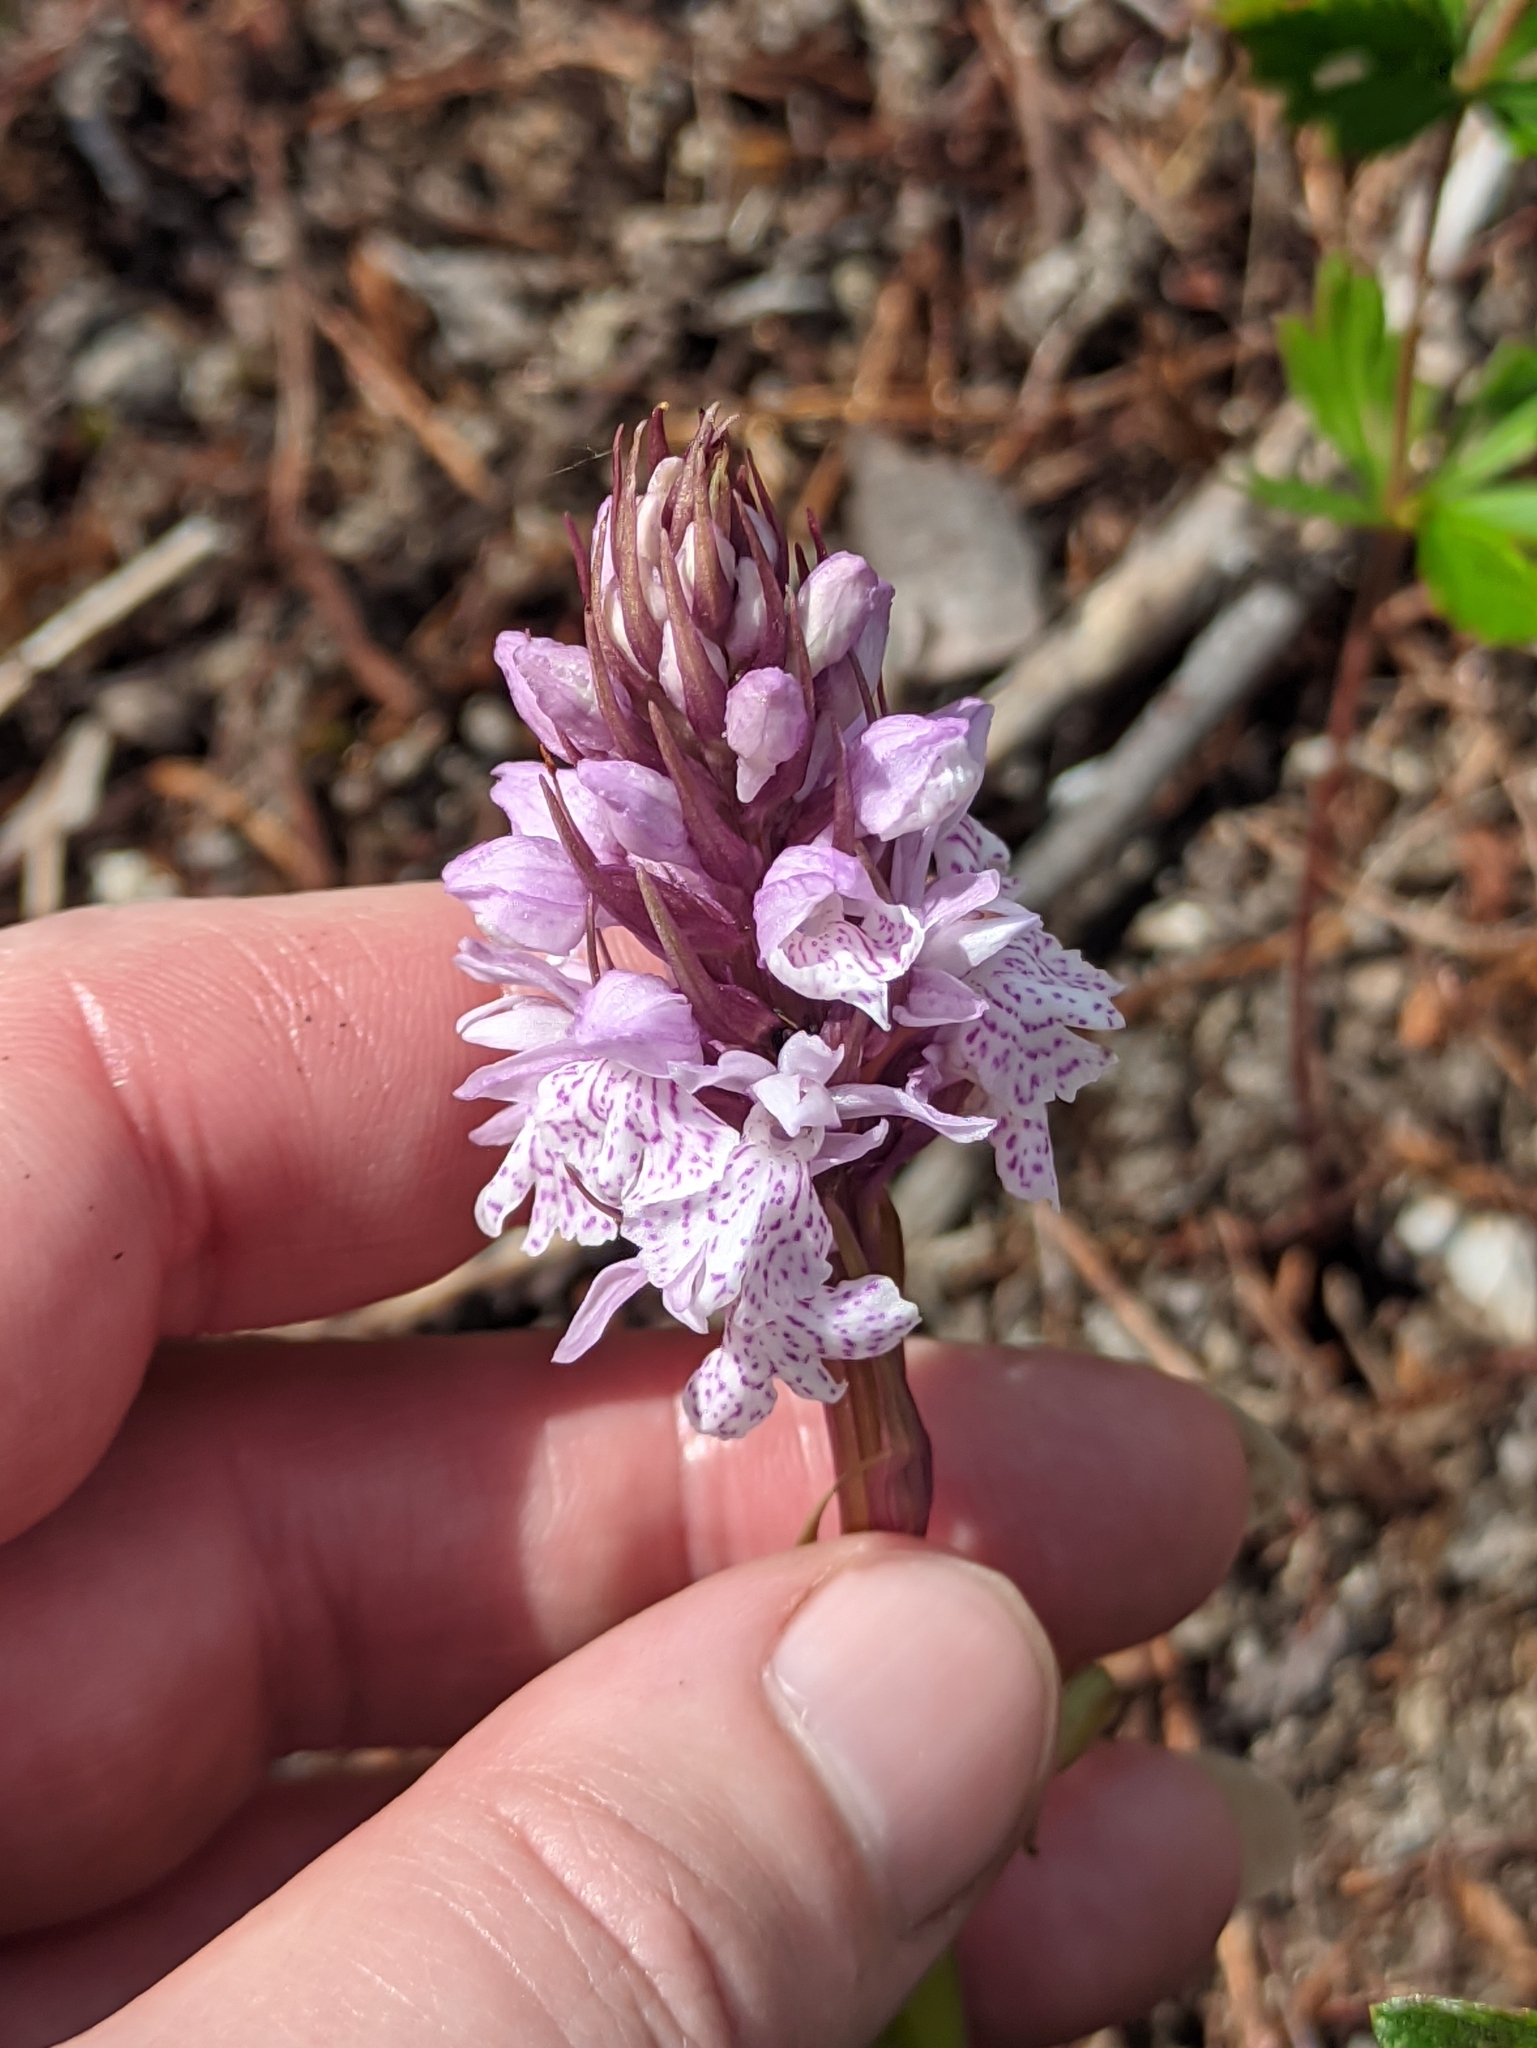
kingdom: Plantae
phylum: Tracheophyta
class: Liliopsida
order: Asparagales
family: Orchidaceae
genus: Dactylorhiza
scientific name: Dactylorhiza maculata
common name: Heath spotted-orchid
